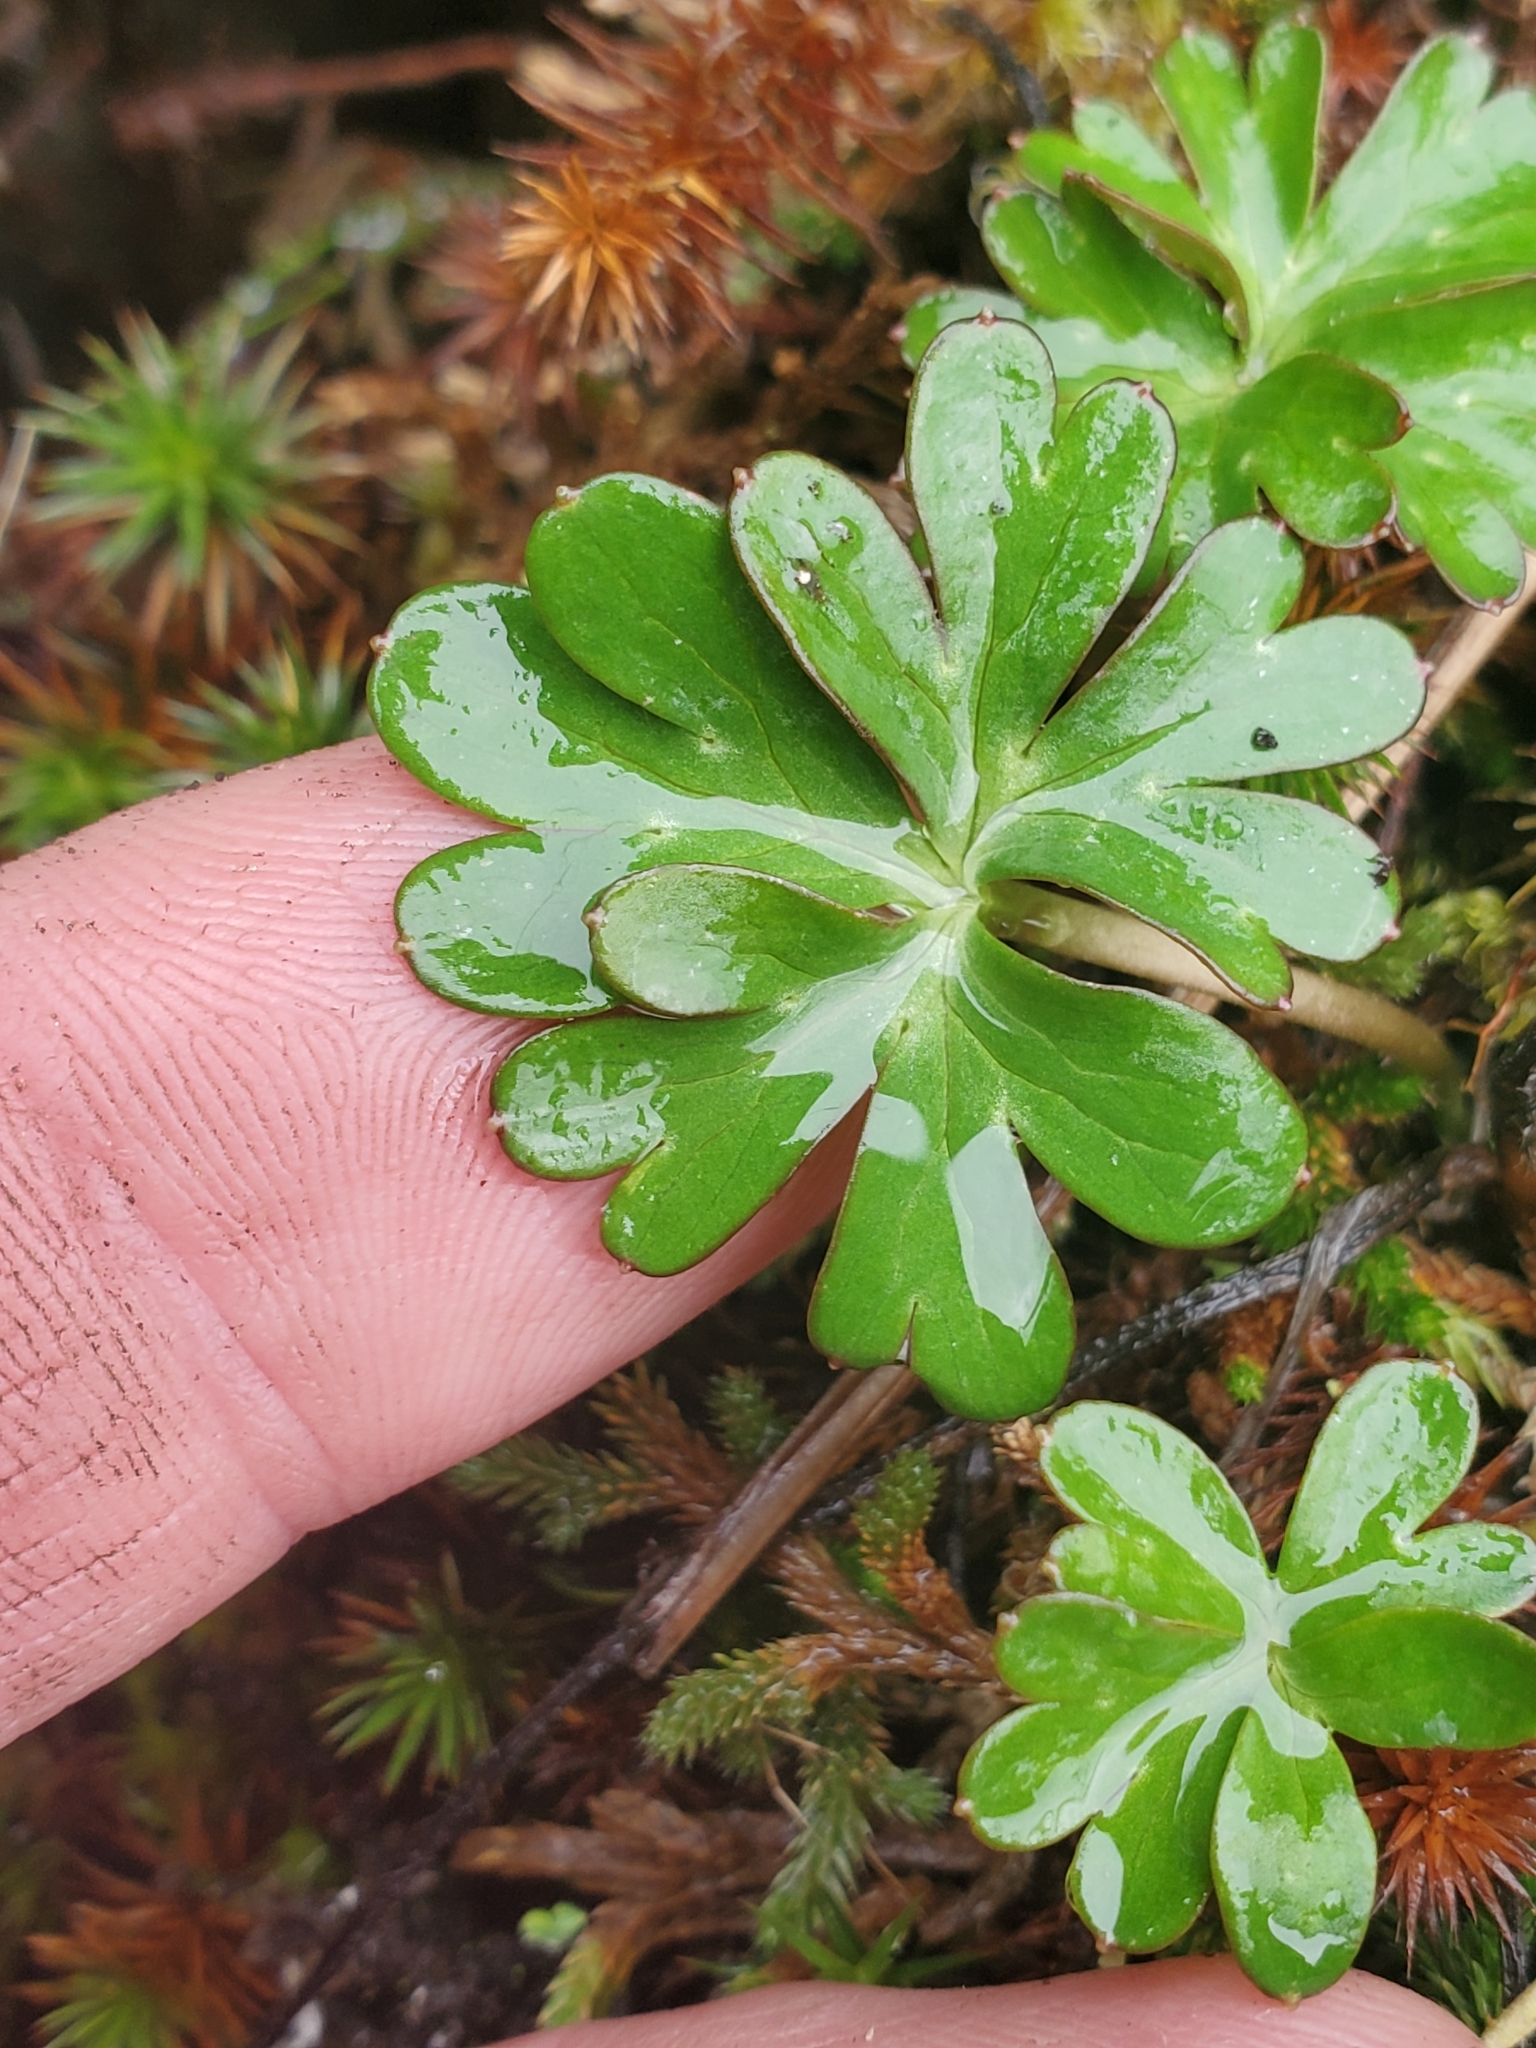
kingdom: Plantae
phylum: Tracheophyta
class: Magnoliopsida
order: Ranunculales
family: Ranunculaceae
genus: Delphinium
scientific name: Delphinium menziesii
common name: Menzies's larkspur
